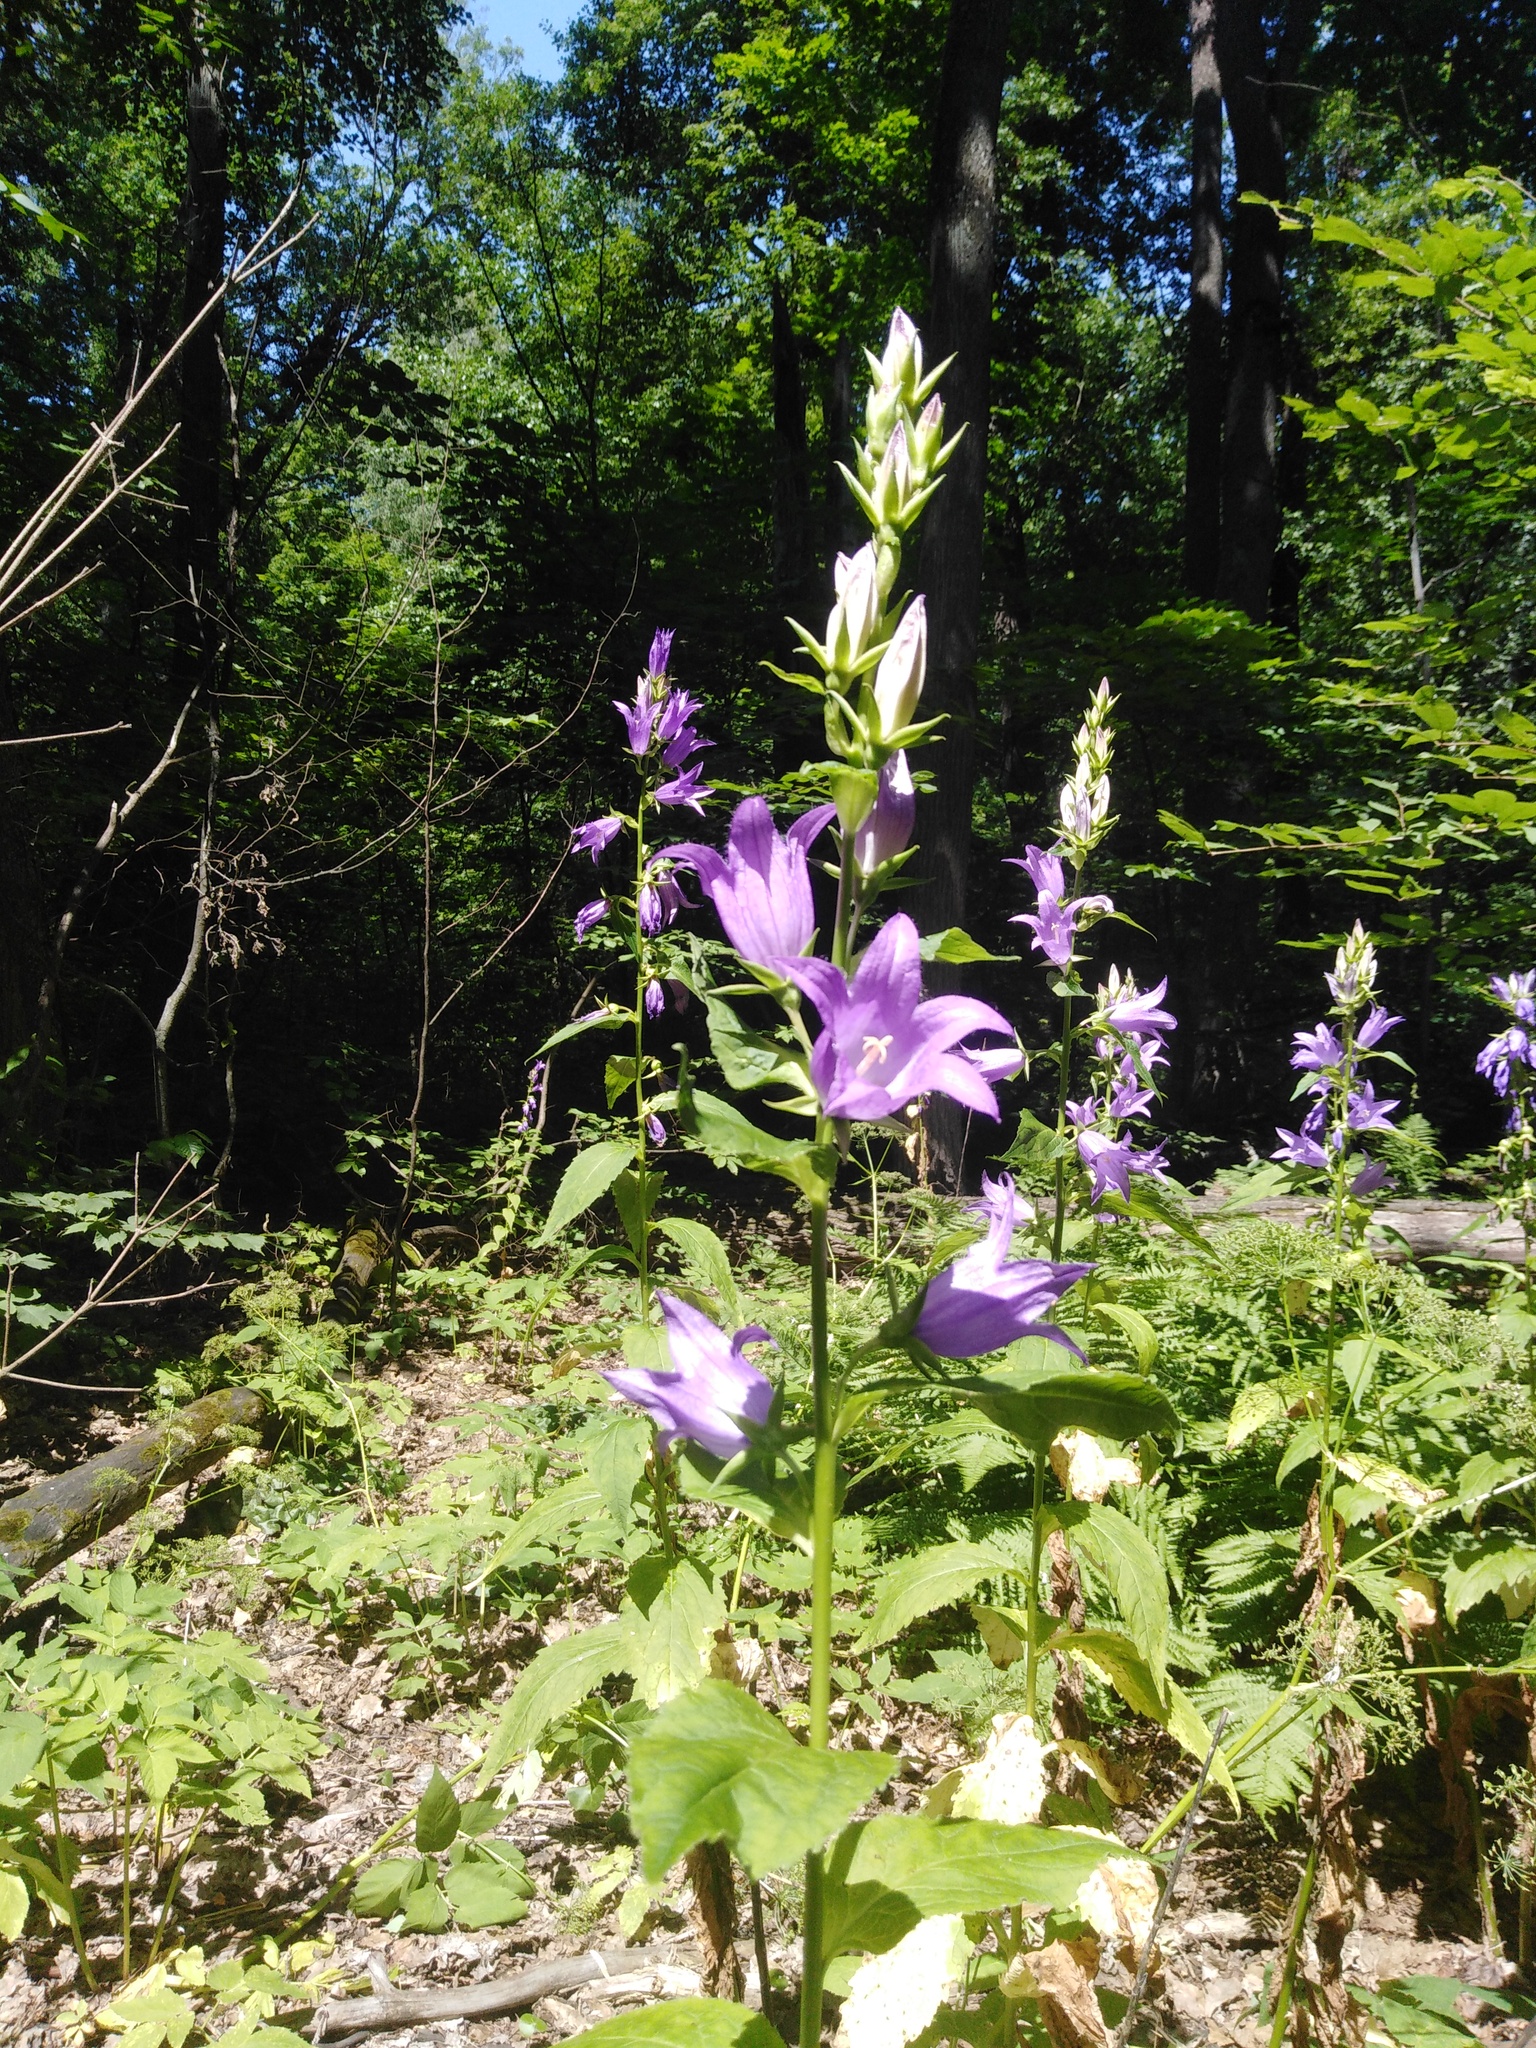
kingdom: Plantae
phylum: Tracheophyta
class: Magnoliopsida
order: Asterales
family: Campanulaceae
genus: Campanula
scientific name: Campanula latifolia
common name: Giant bellflower
